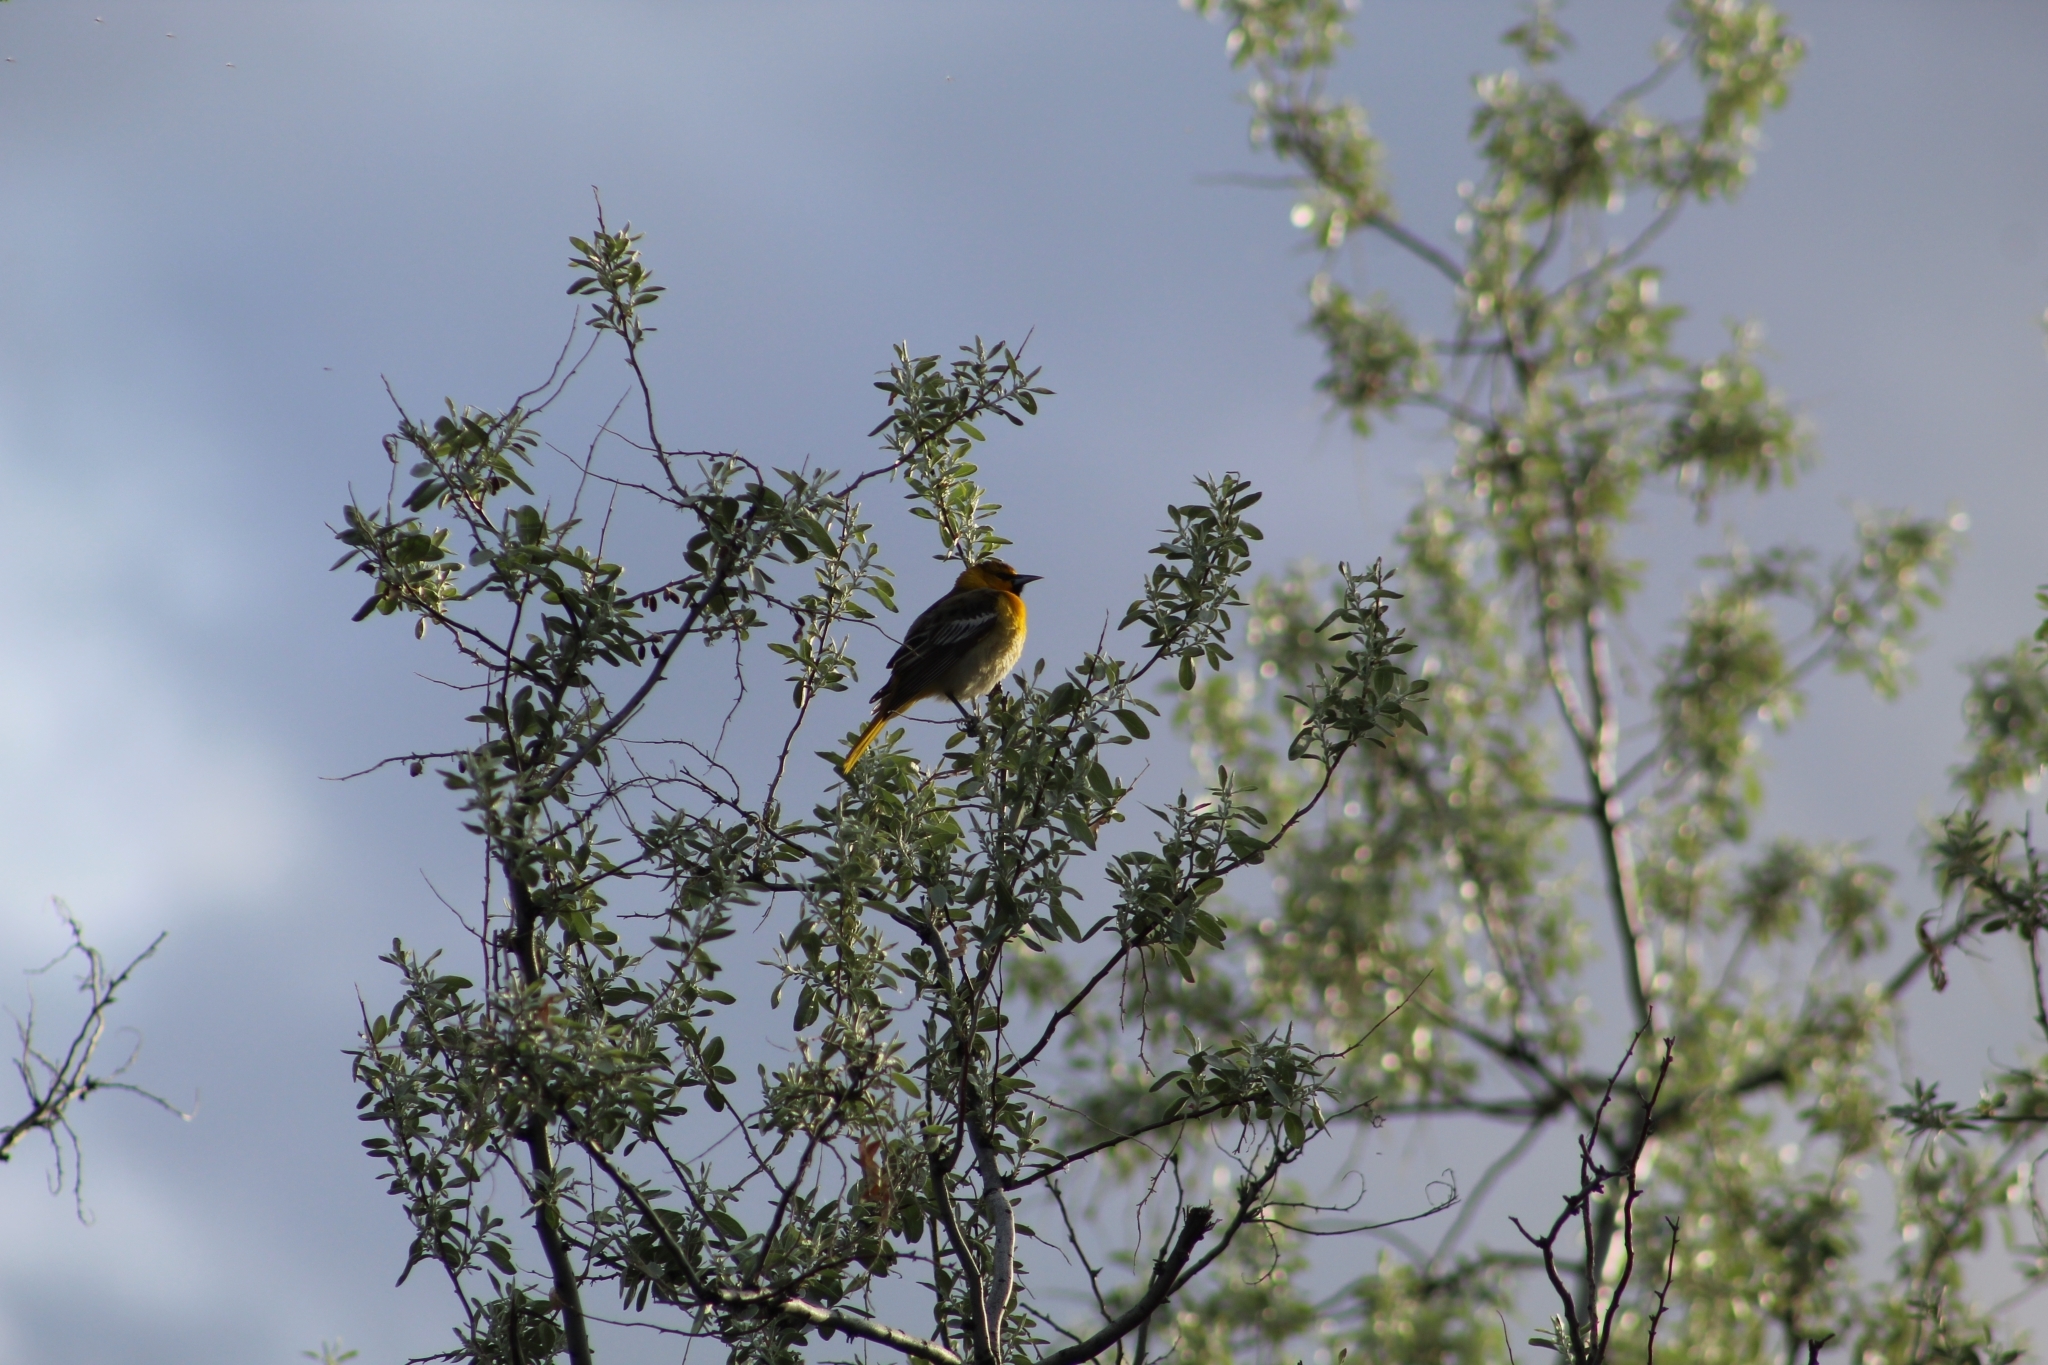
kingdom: Animalia
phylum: Chordata
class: Aves
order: Passeriformes
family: Icteridae
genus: Icterus
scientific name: Icterus bullockii
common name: Bullock's oriole
